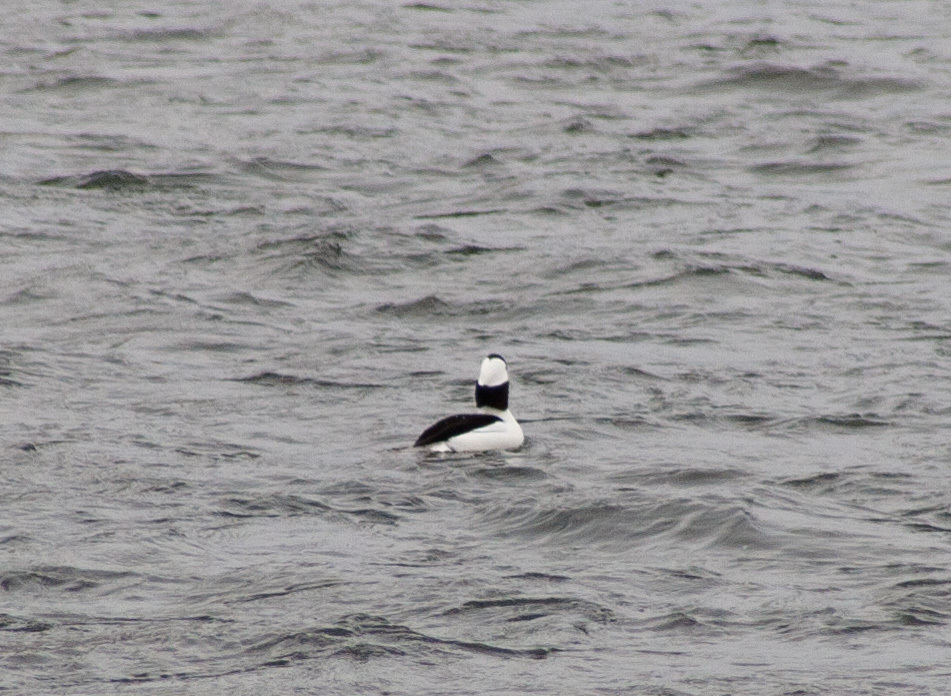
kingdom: Animalia
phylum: Chordata
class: Aves
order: Anseriformes
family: Anatidae
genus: Bucephala
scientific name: Bucephala albeola
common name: Bufflehead
